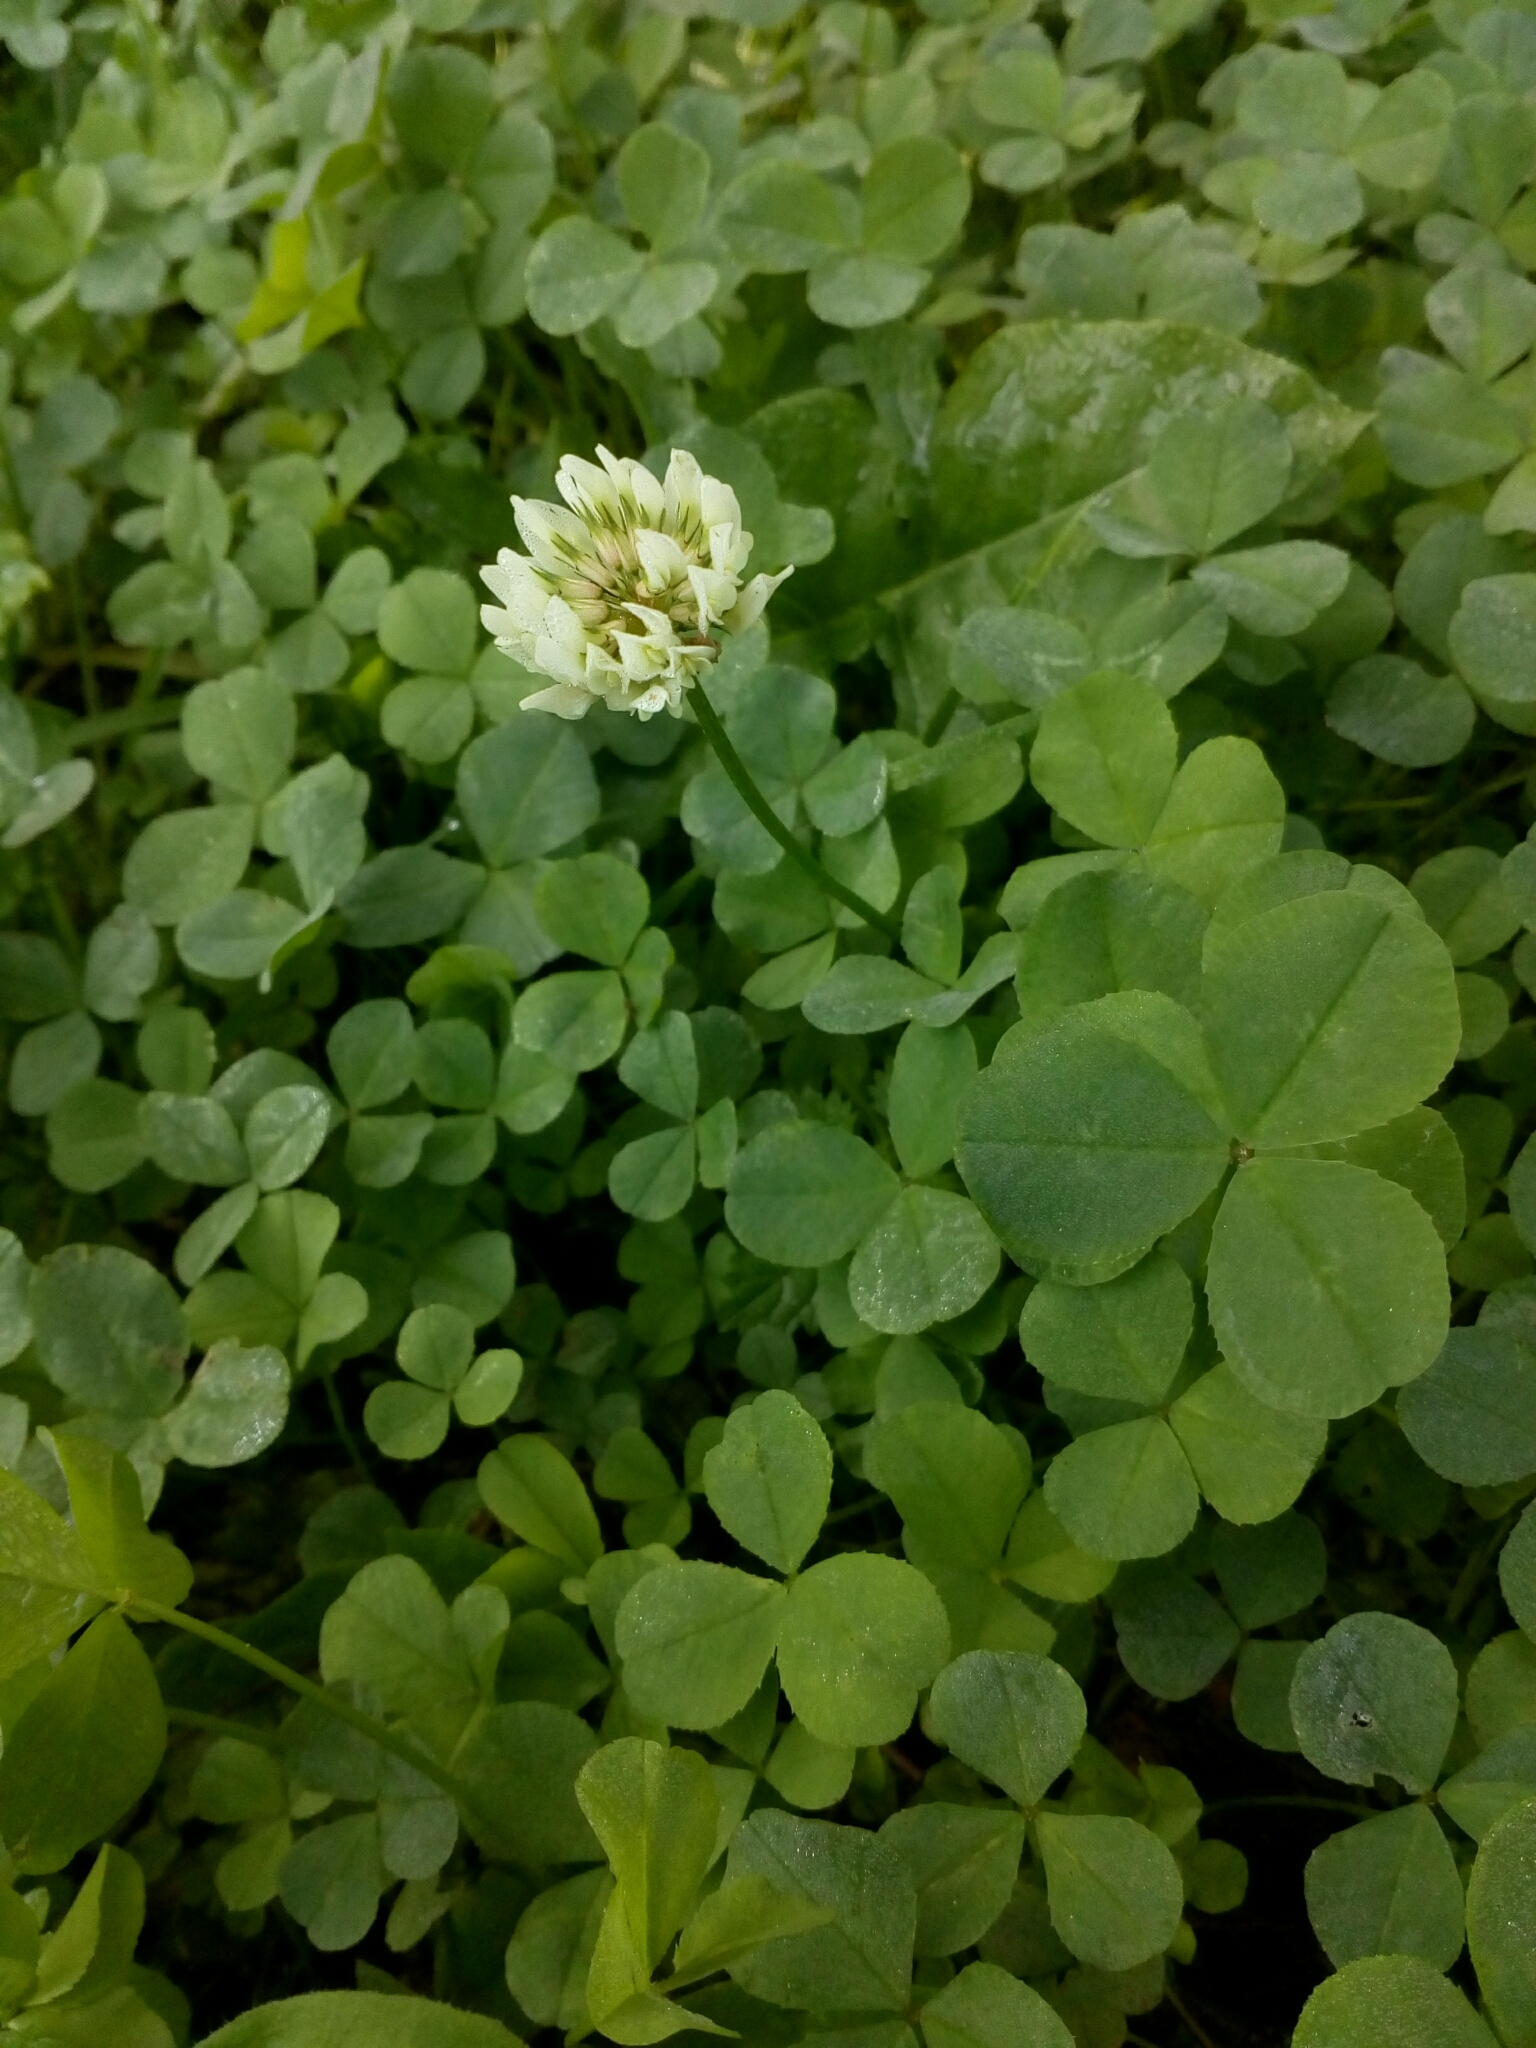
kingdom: Plantae
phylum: Tracheophyta
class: Magnoliopsida
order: Fabales
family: Fabaceae
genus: Trifolium
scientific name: Trifolium repens
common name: White clover
